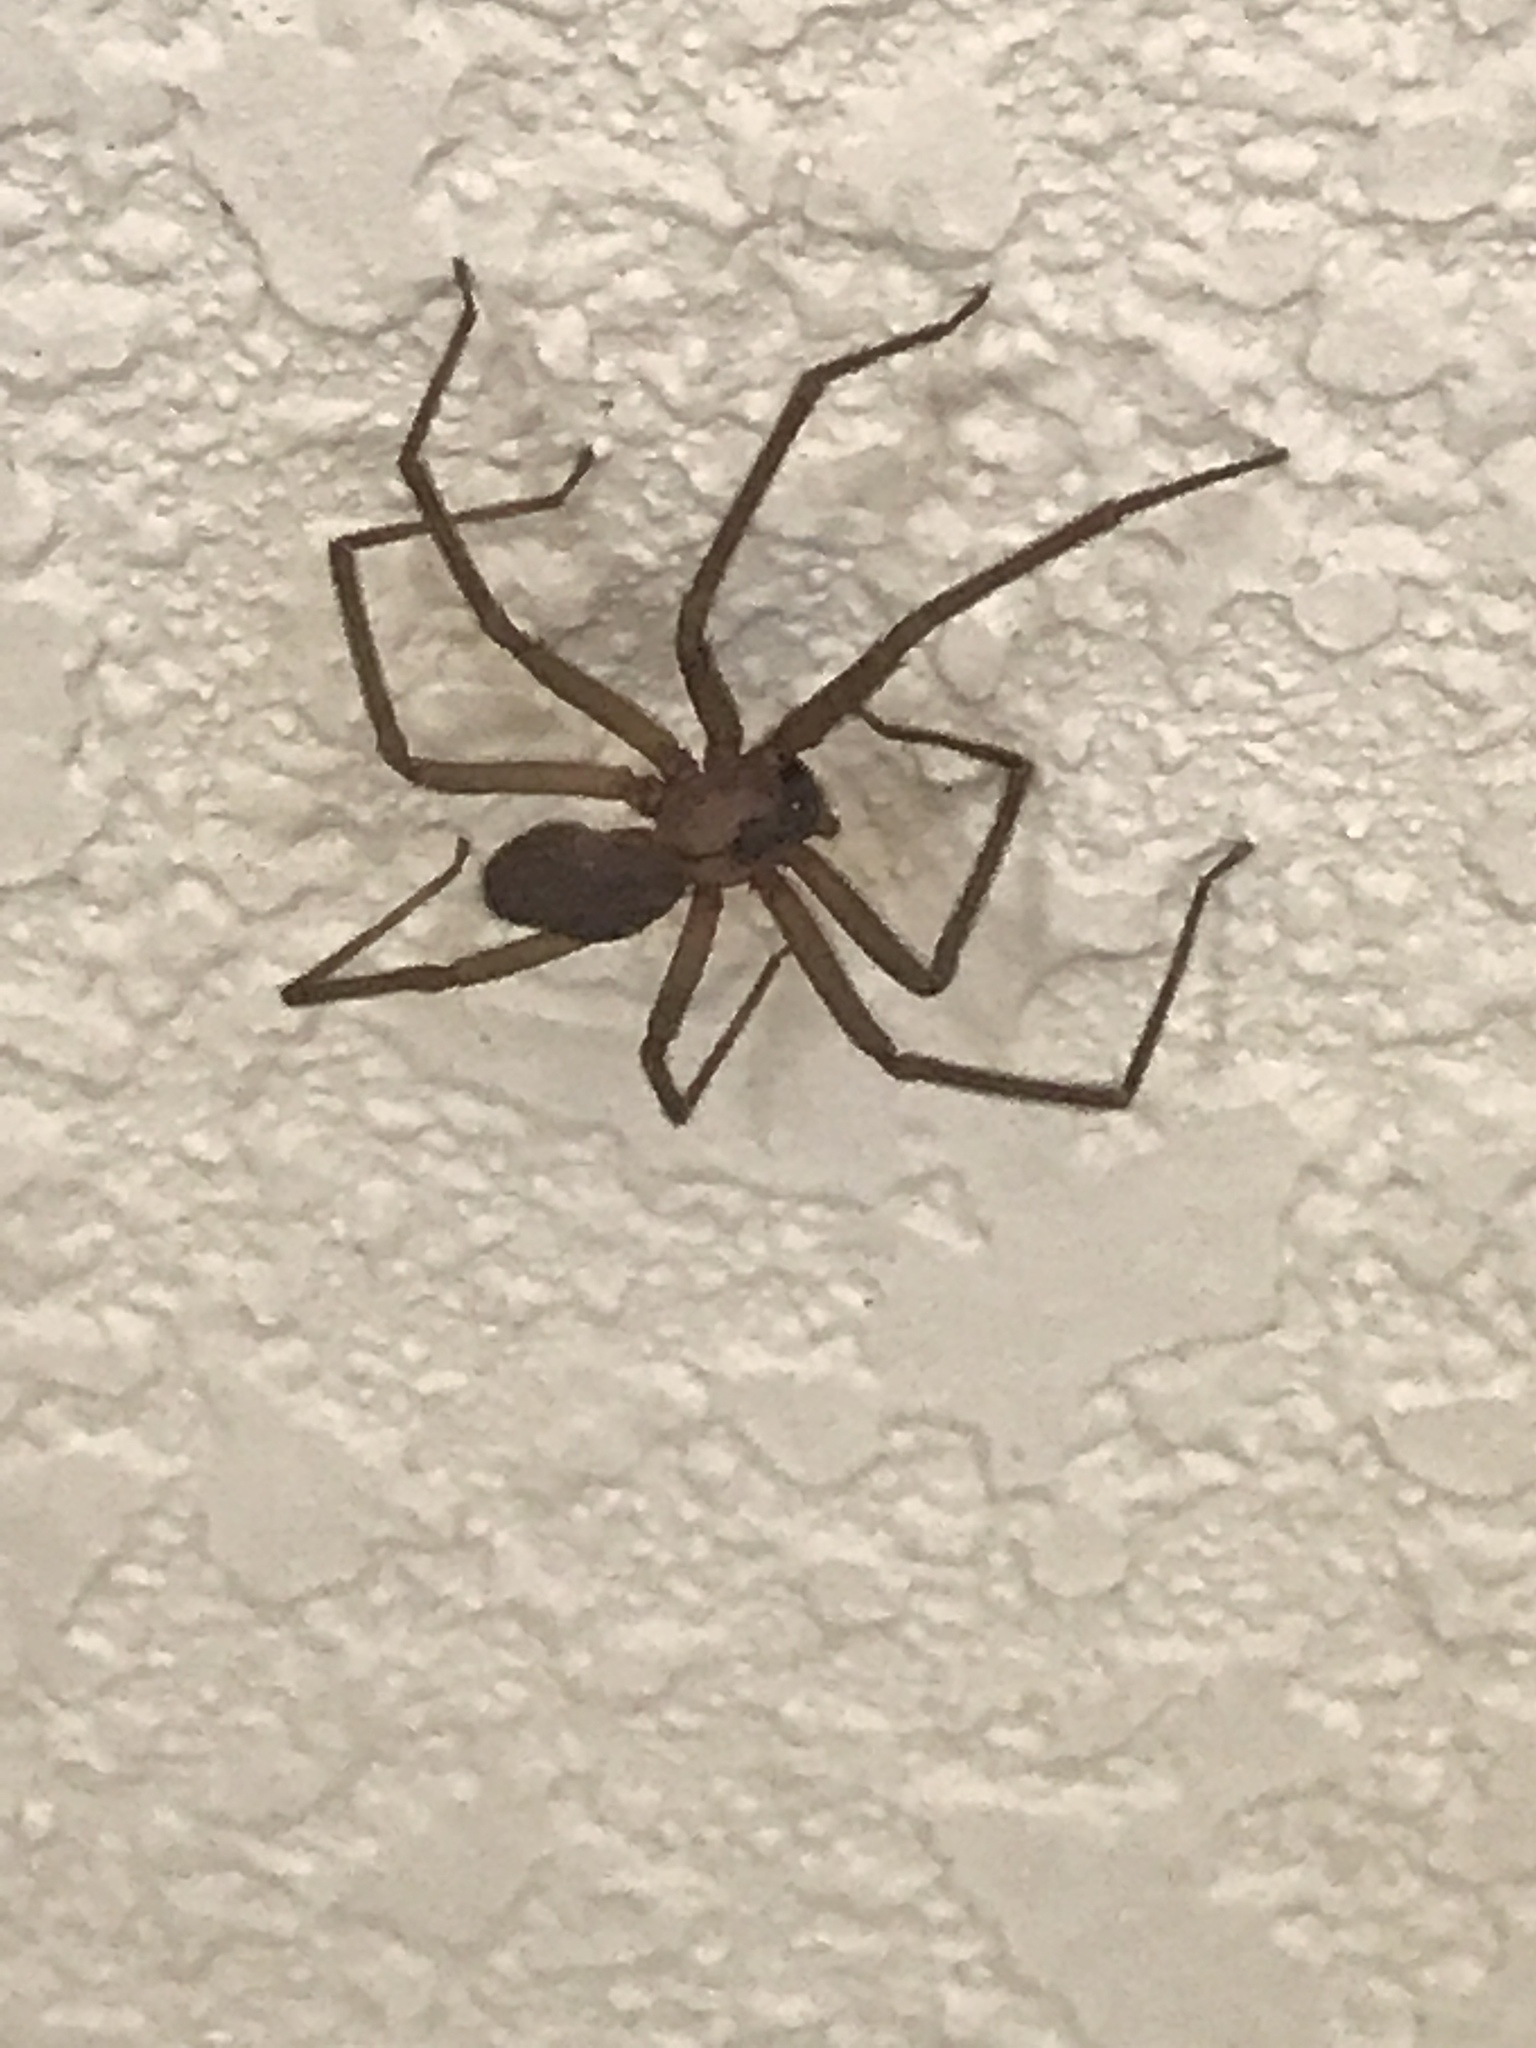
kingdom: Animalia
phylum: Arthropoda
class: Arachnida
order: Araneae
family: Sicariidae
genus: Loxosceles
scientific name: Loxosceles reclusa
